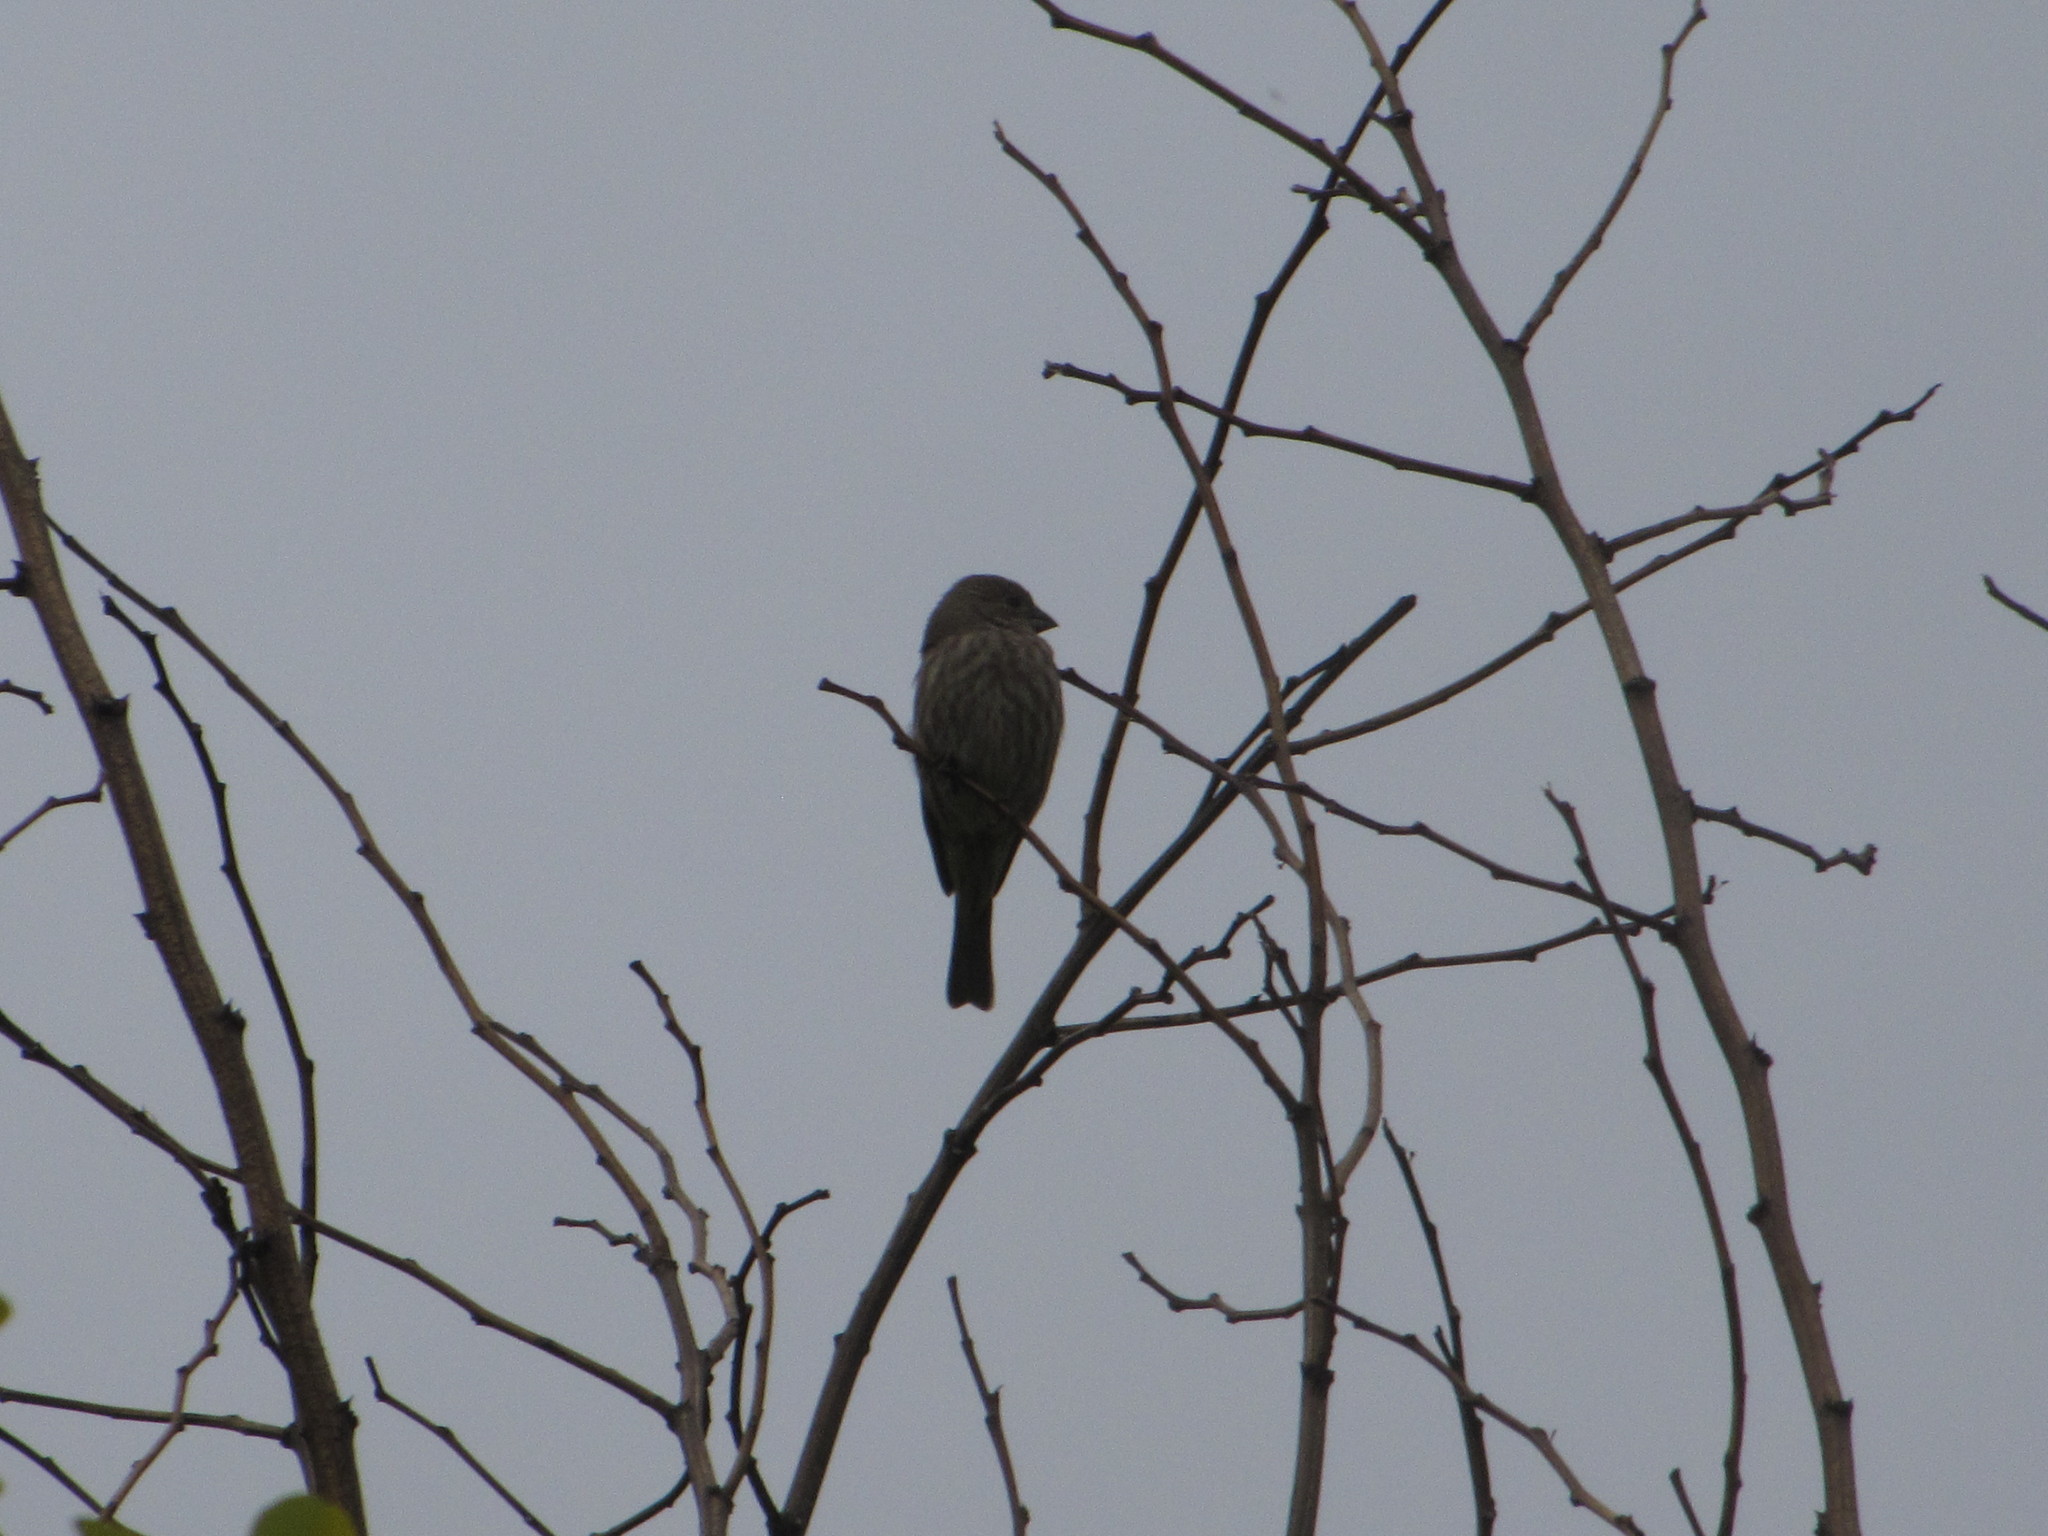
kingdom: Animalia
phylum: Chordata
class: Aves
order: Passeriformes
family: Fringillidae
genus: Haemorhous
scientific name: Haemorhous mexicanus
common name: House finch
